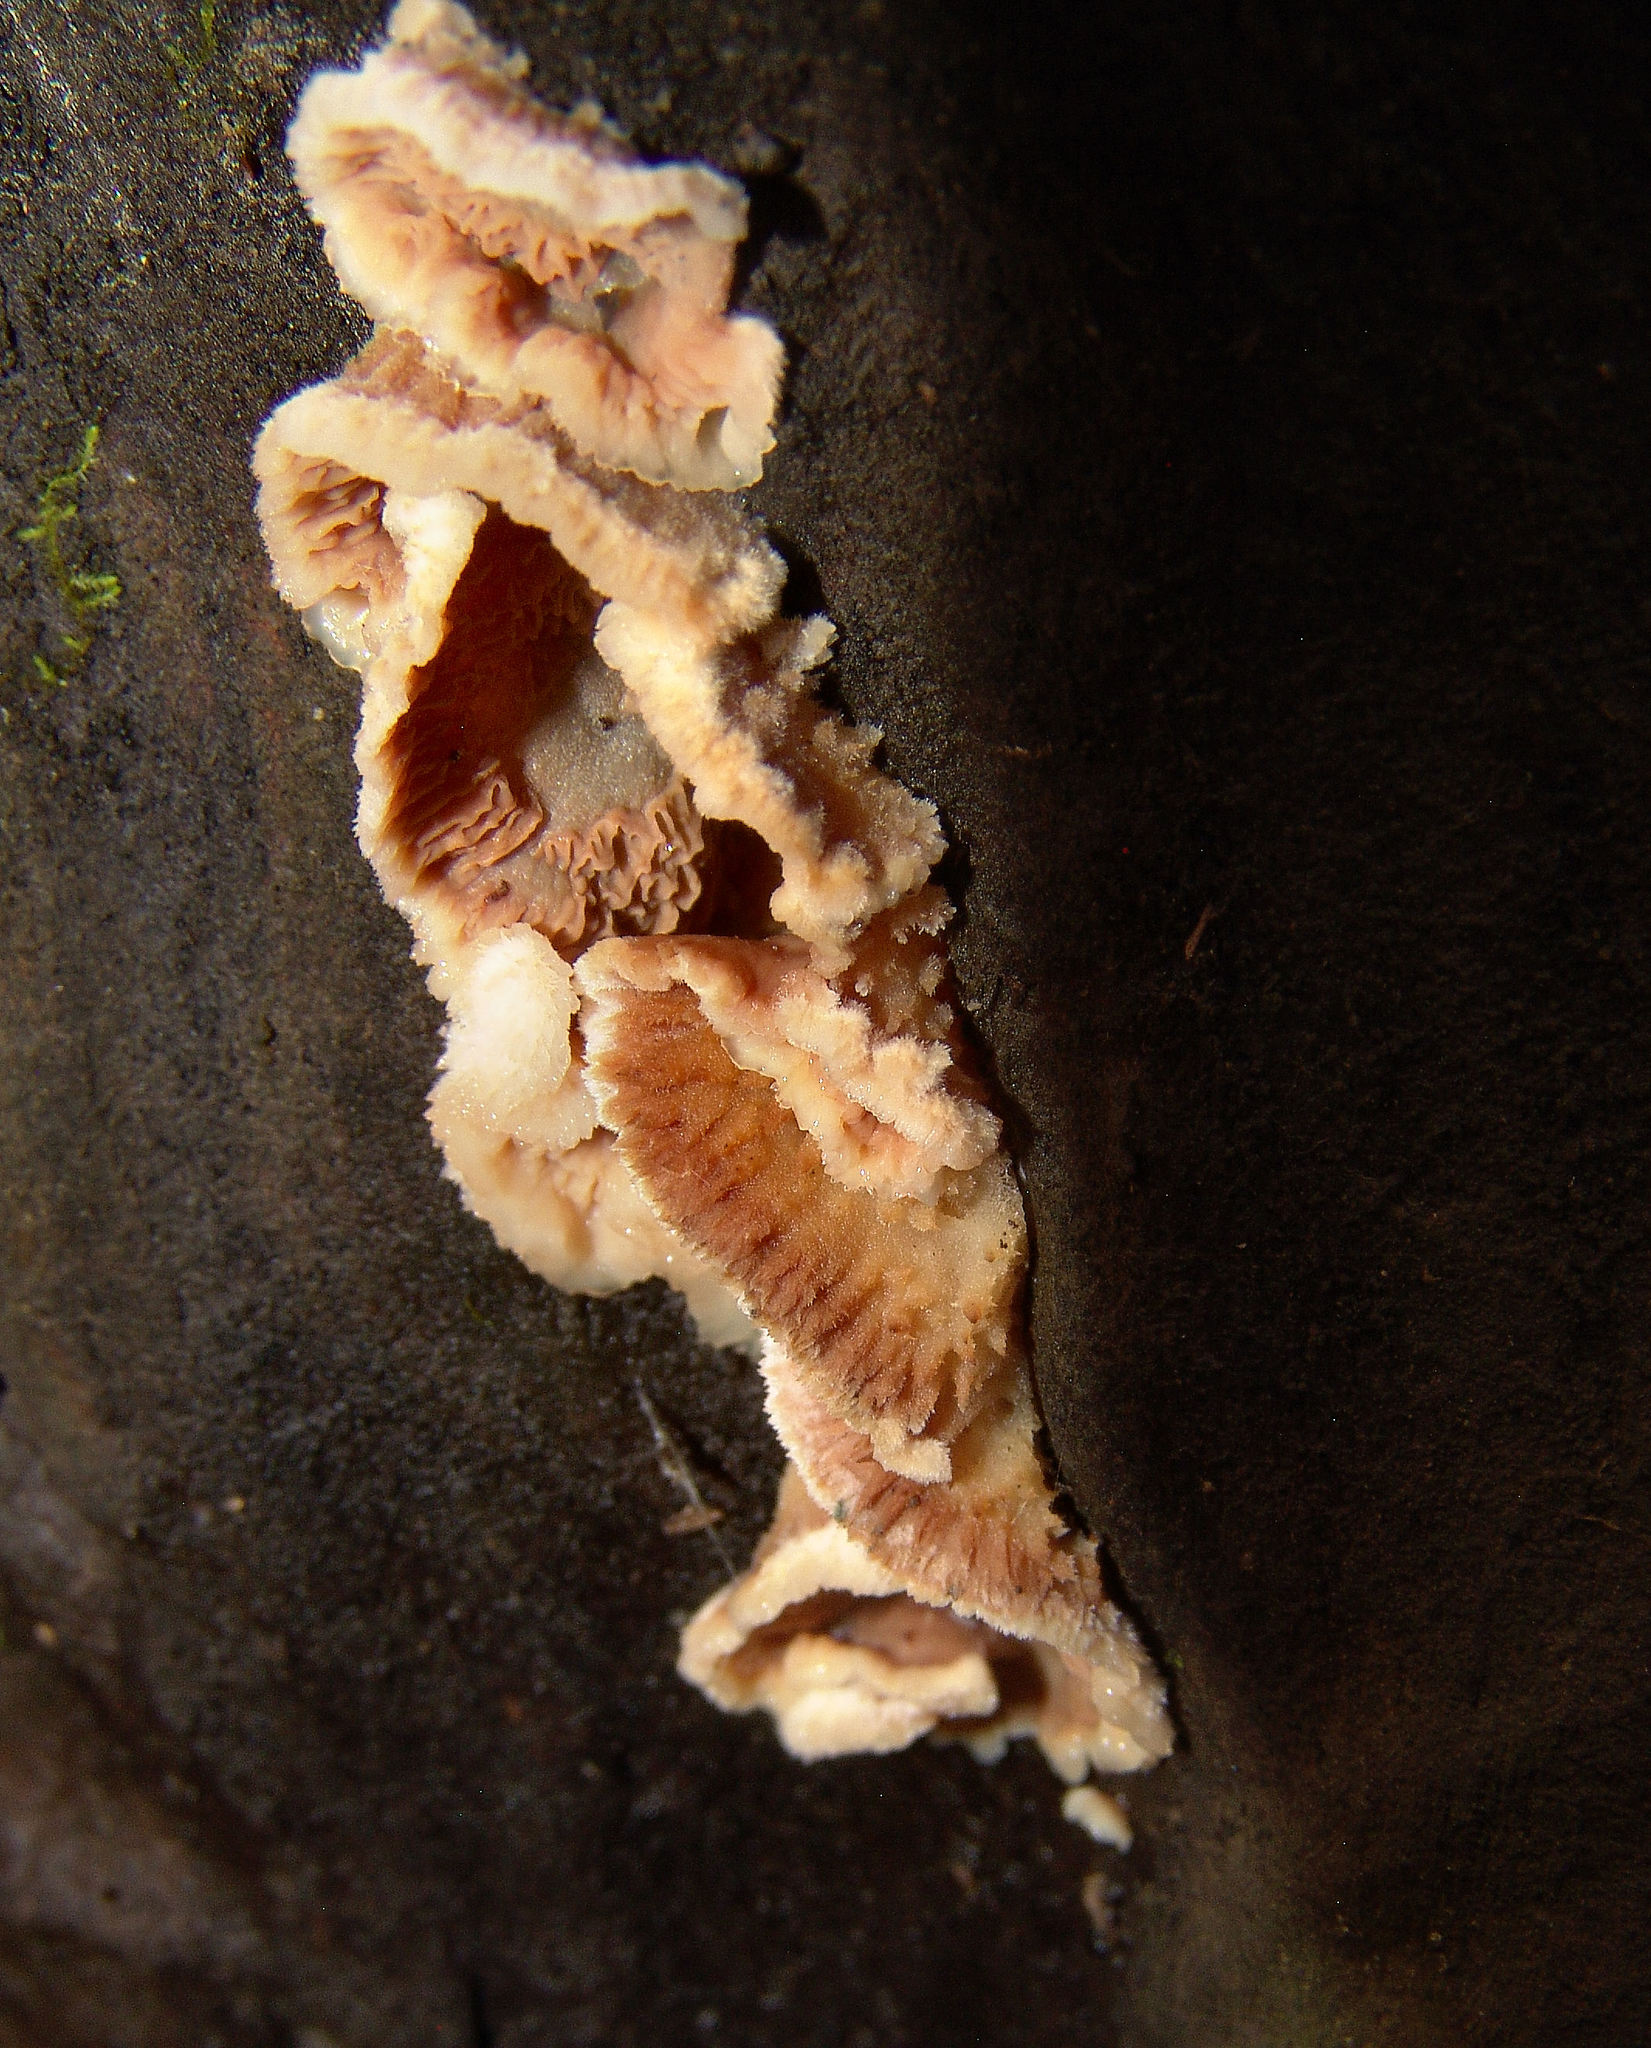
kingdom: Fungi
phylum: Basidiomycota
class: Agaricomycetes
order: Polyporales
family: Meruliaceae
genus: Phlebia
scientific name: Phlebia tremellosa
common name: Jelly rot
